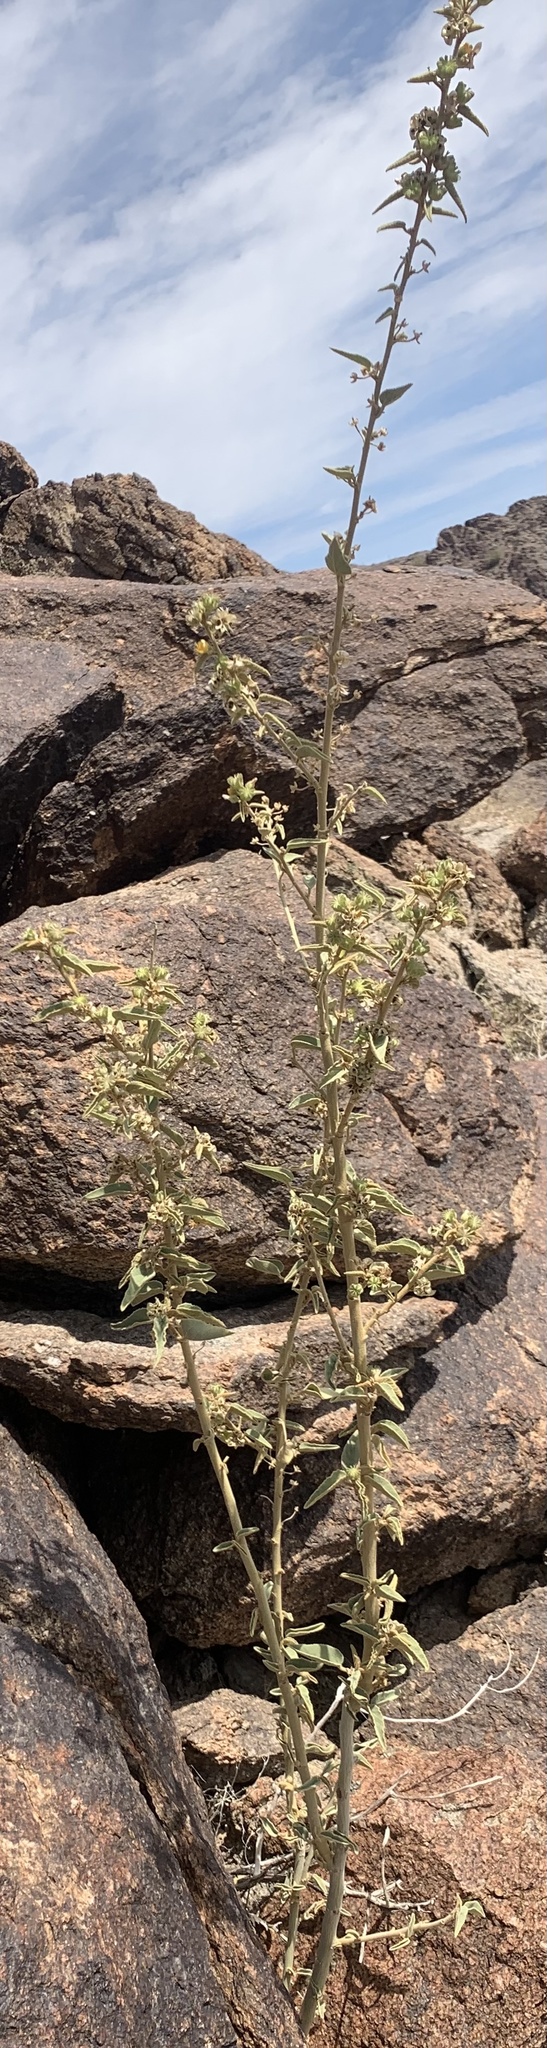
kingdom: Plantae
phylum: Tracheophyta
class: Magnoliopsida
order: Malvales
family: Malvaceae
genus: Horsfordia
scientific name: Horsfordia newberryi
